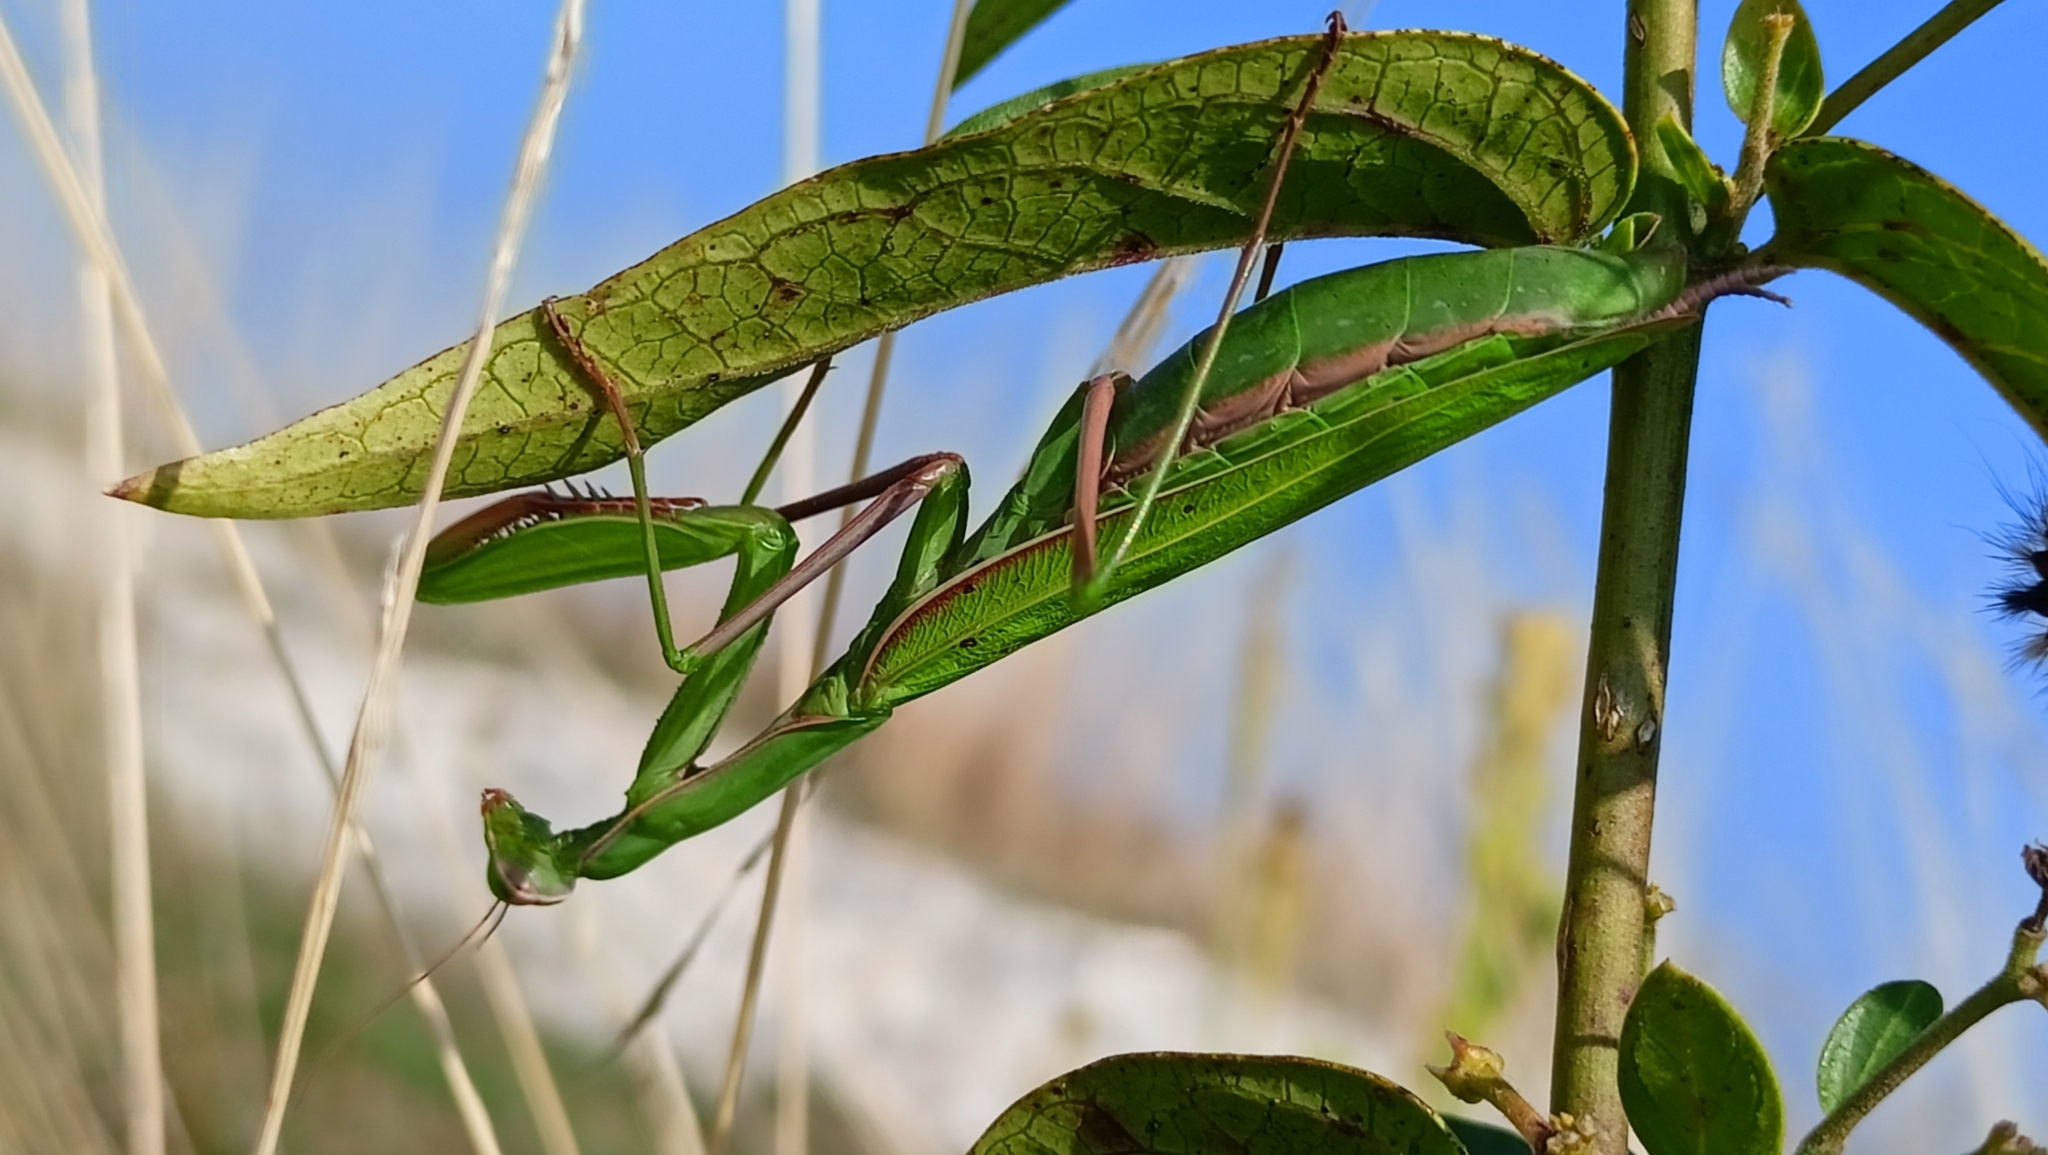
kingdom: Animalia
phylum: Arthropoda
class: Insecta
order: Mantodea
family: Mantidae
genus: Mantis
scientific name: Mantis religiosa
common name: Praying mantis
